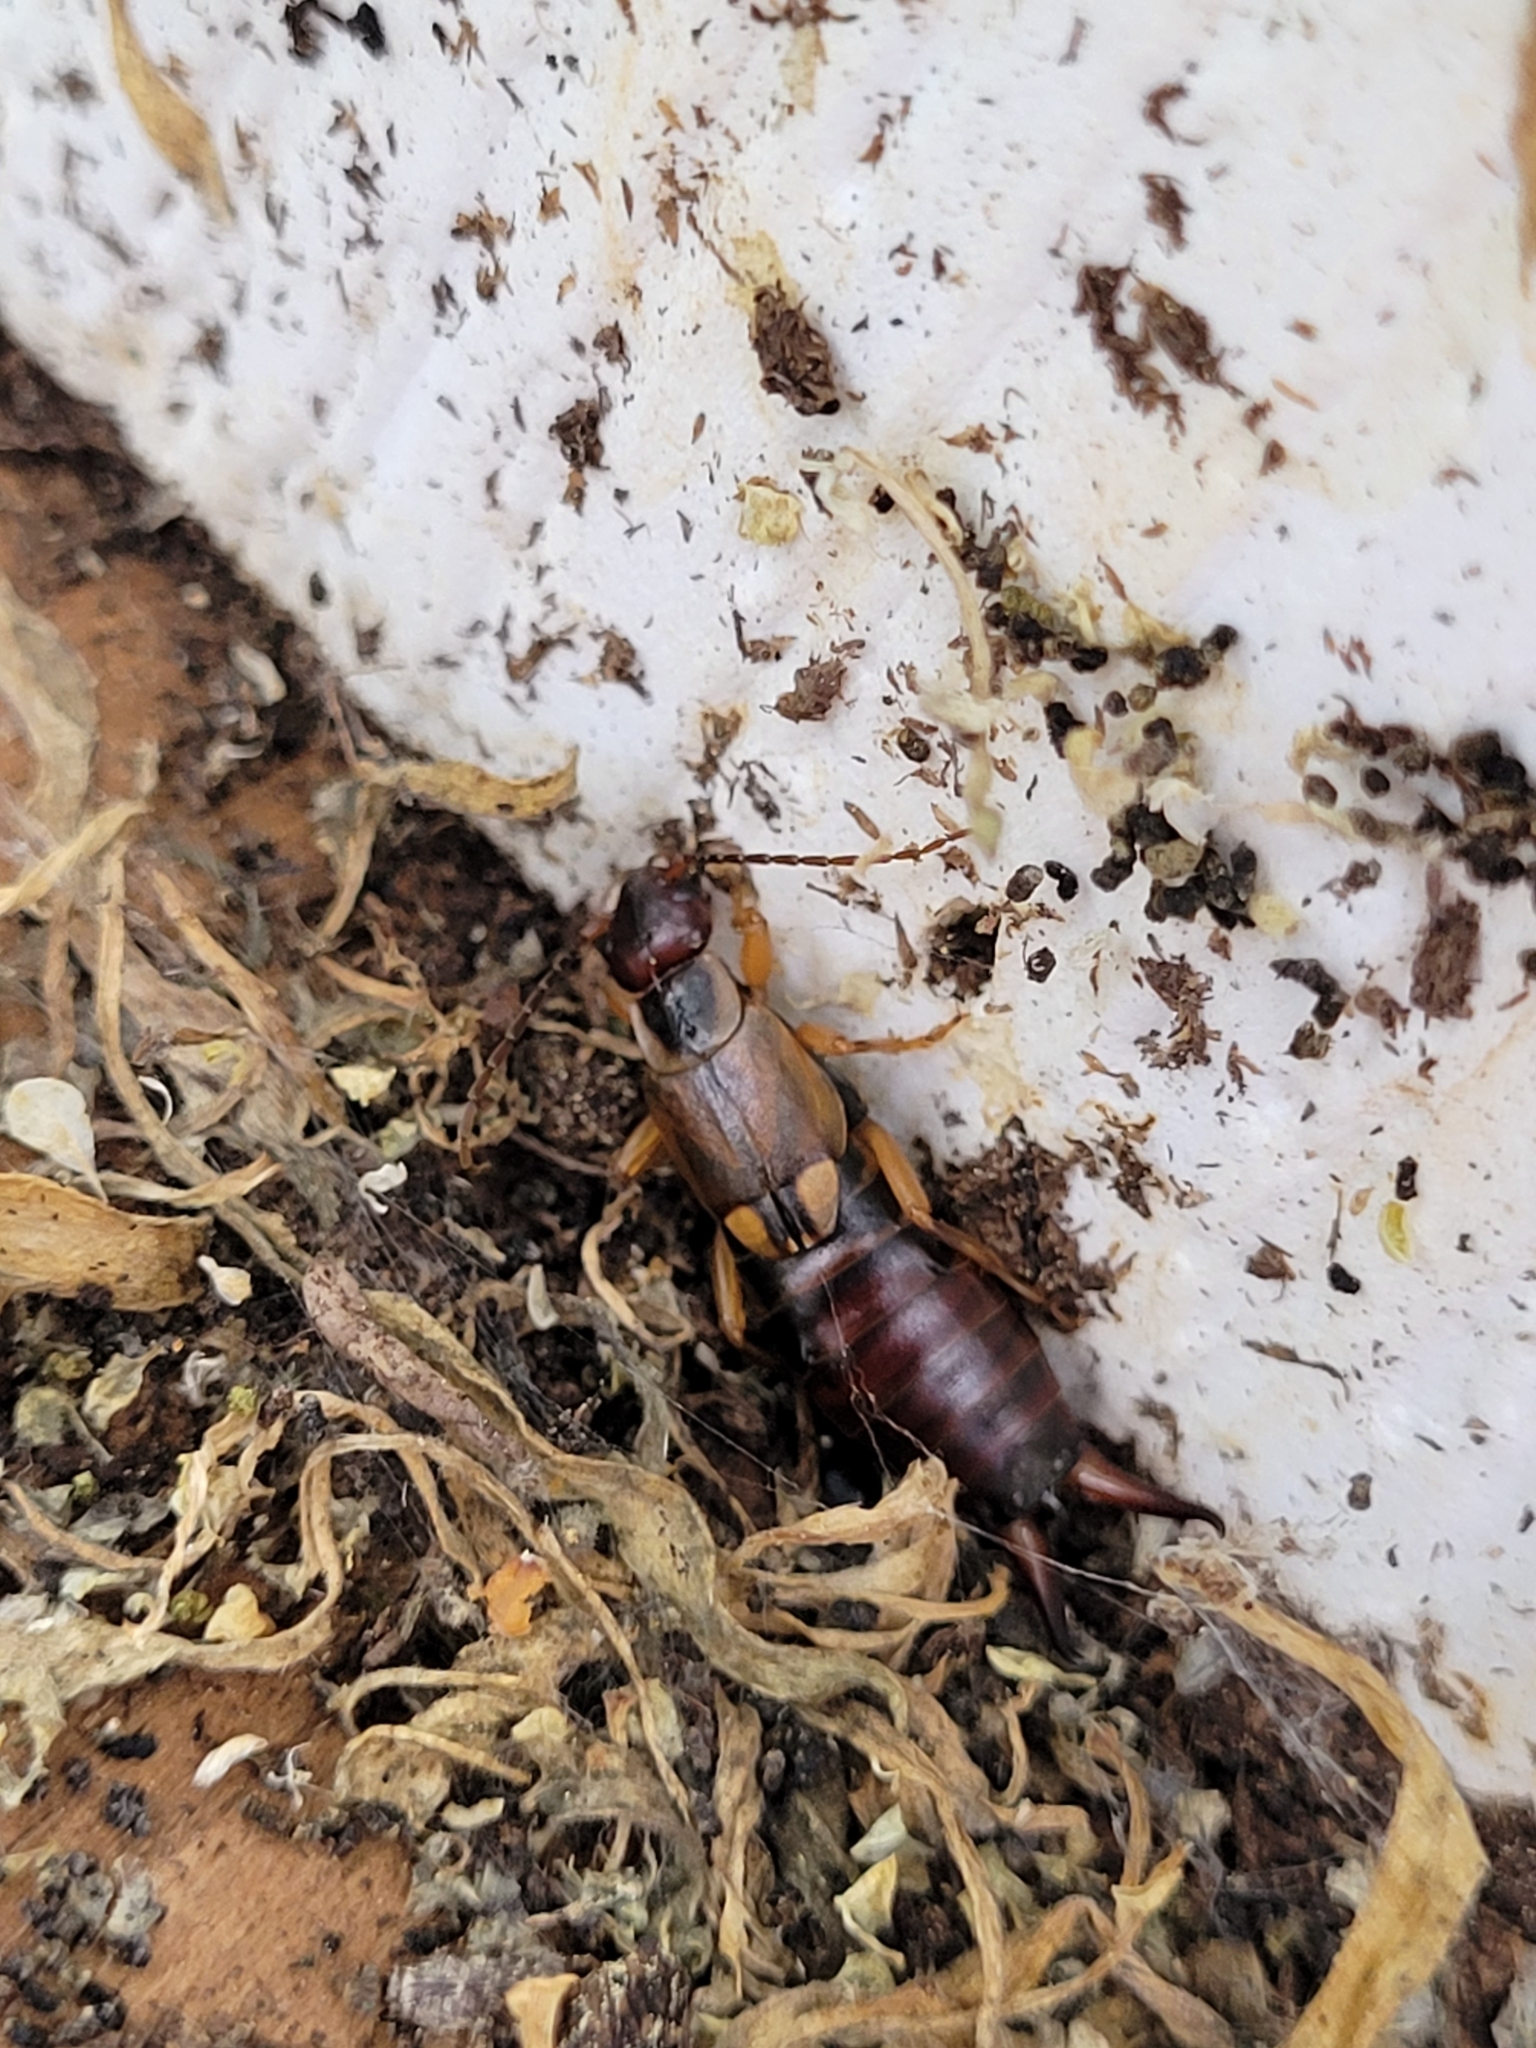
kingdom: Animalia
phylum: Arthropoda
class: Insecta
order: Dermaptera
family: Forficulidae
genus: Forficula
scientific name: Forficula
